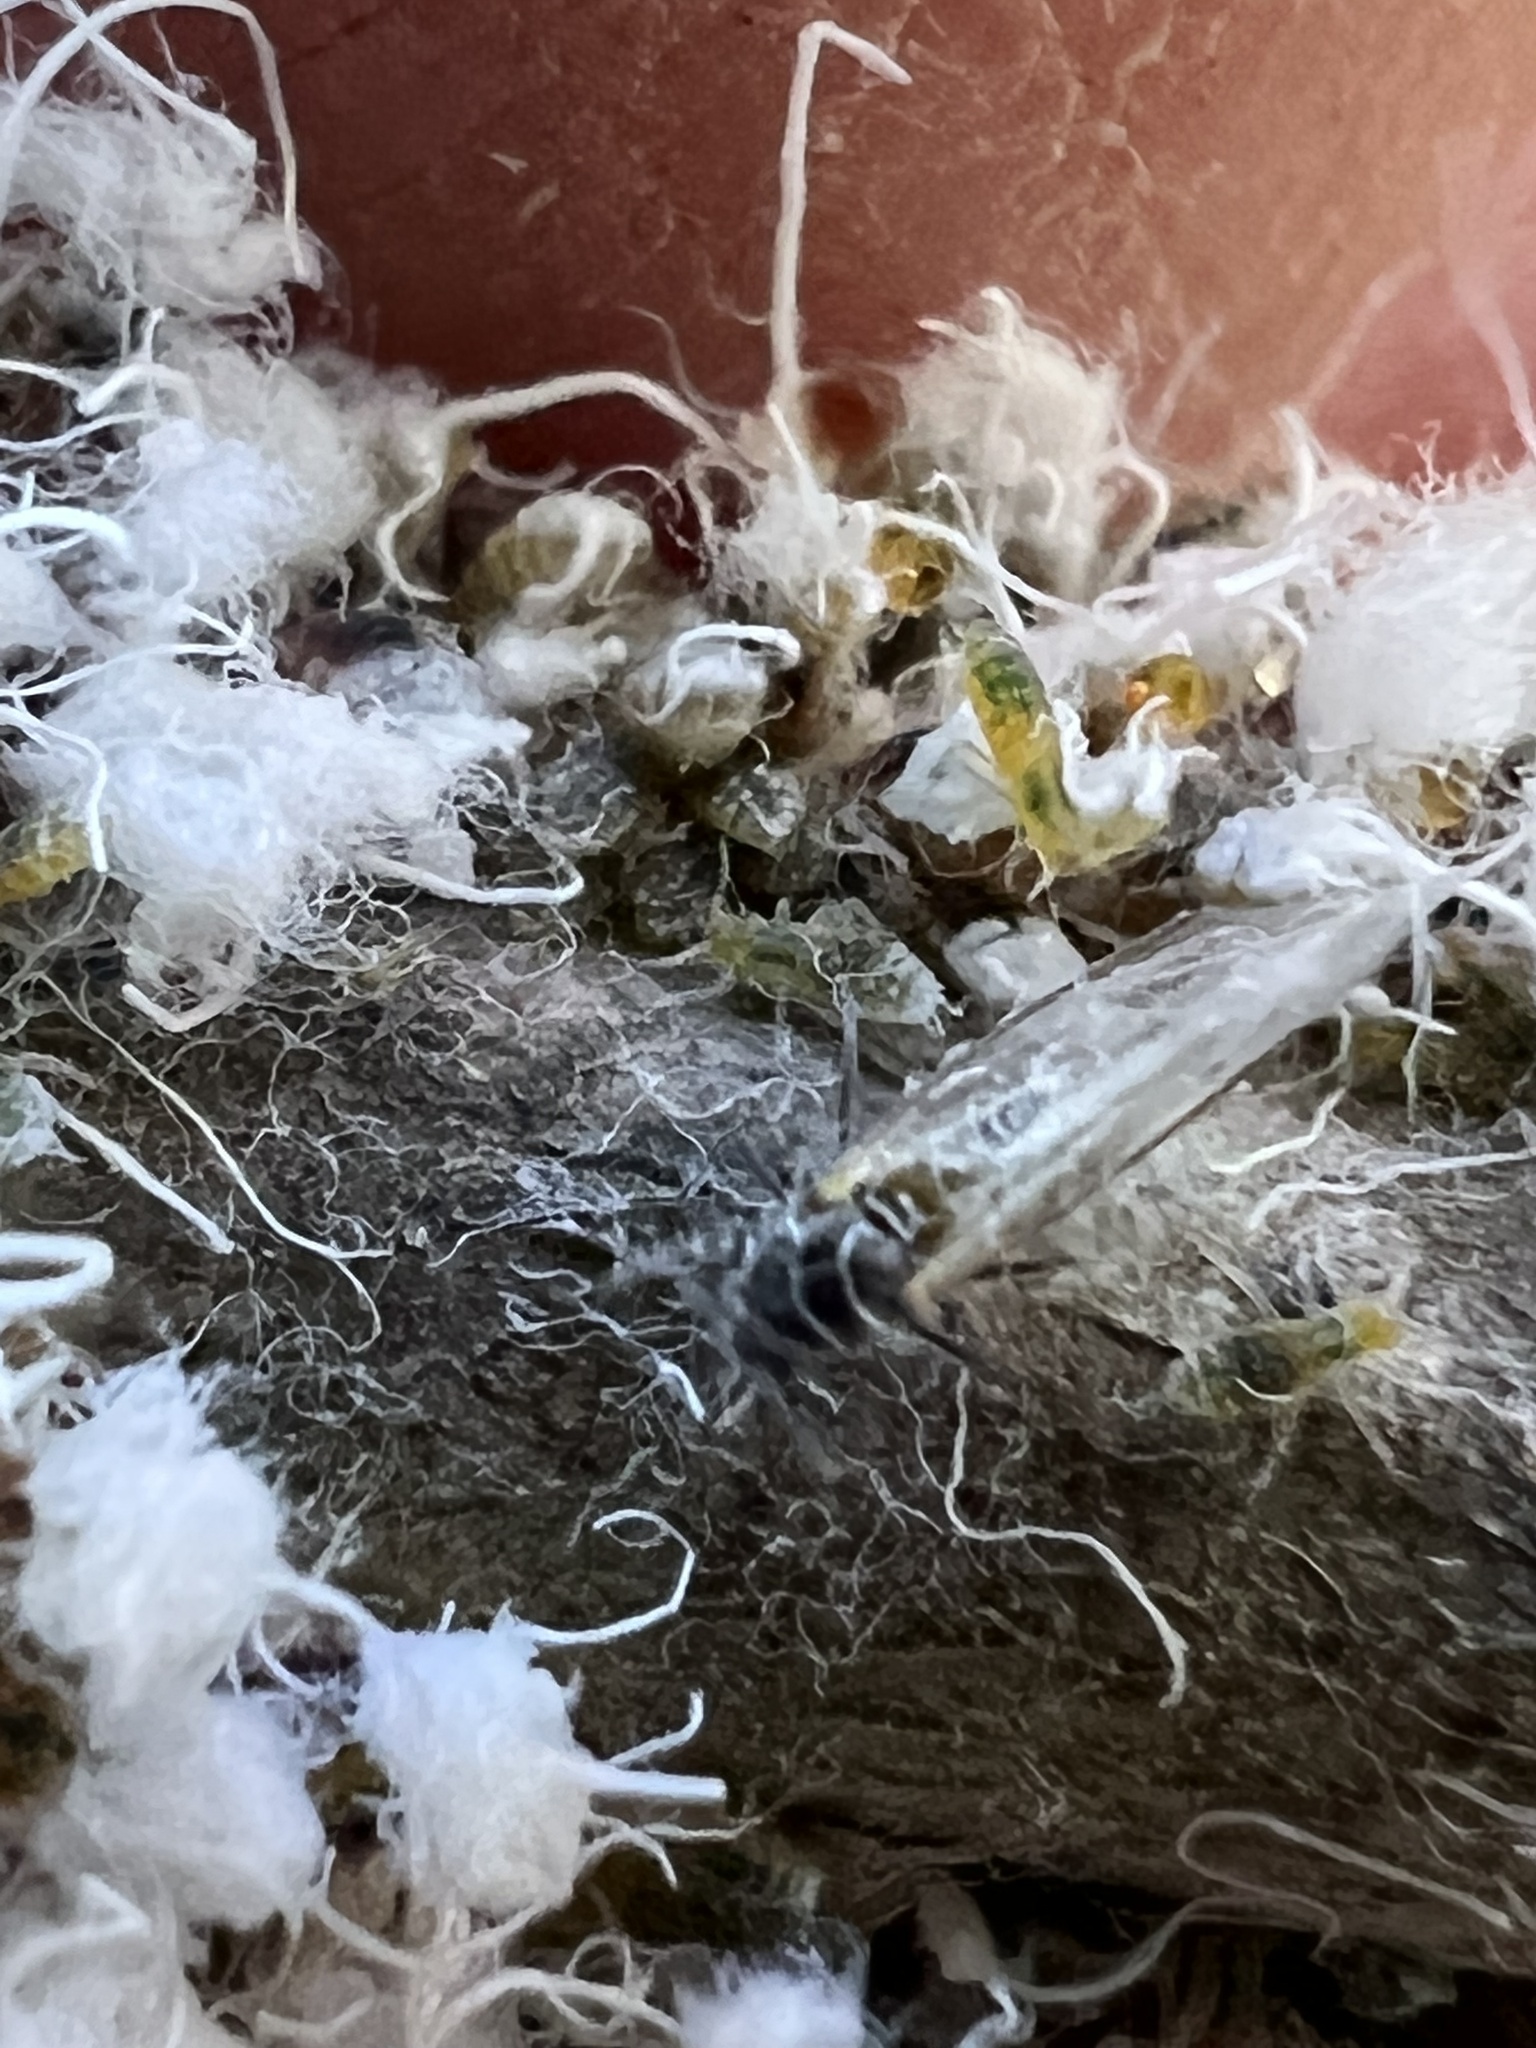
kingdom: Animalia
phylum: Arthropoda
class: Insecta
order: Hemiptera
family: Aphididae
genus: Grylloprociphilus
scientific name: Grylloprociphilus imbricator
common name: Beech blight aphid
